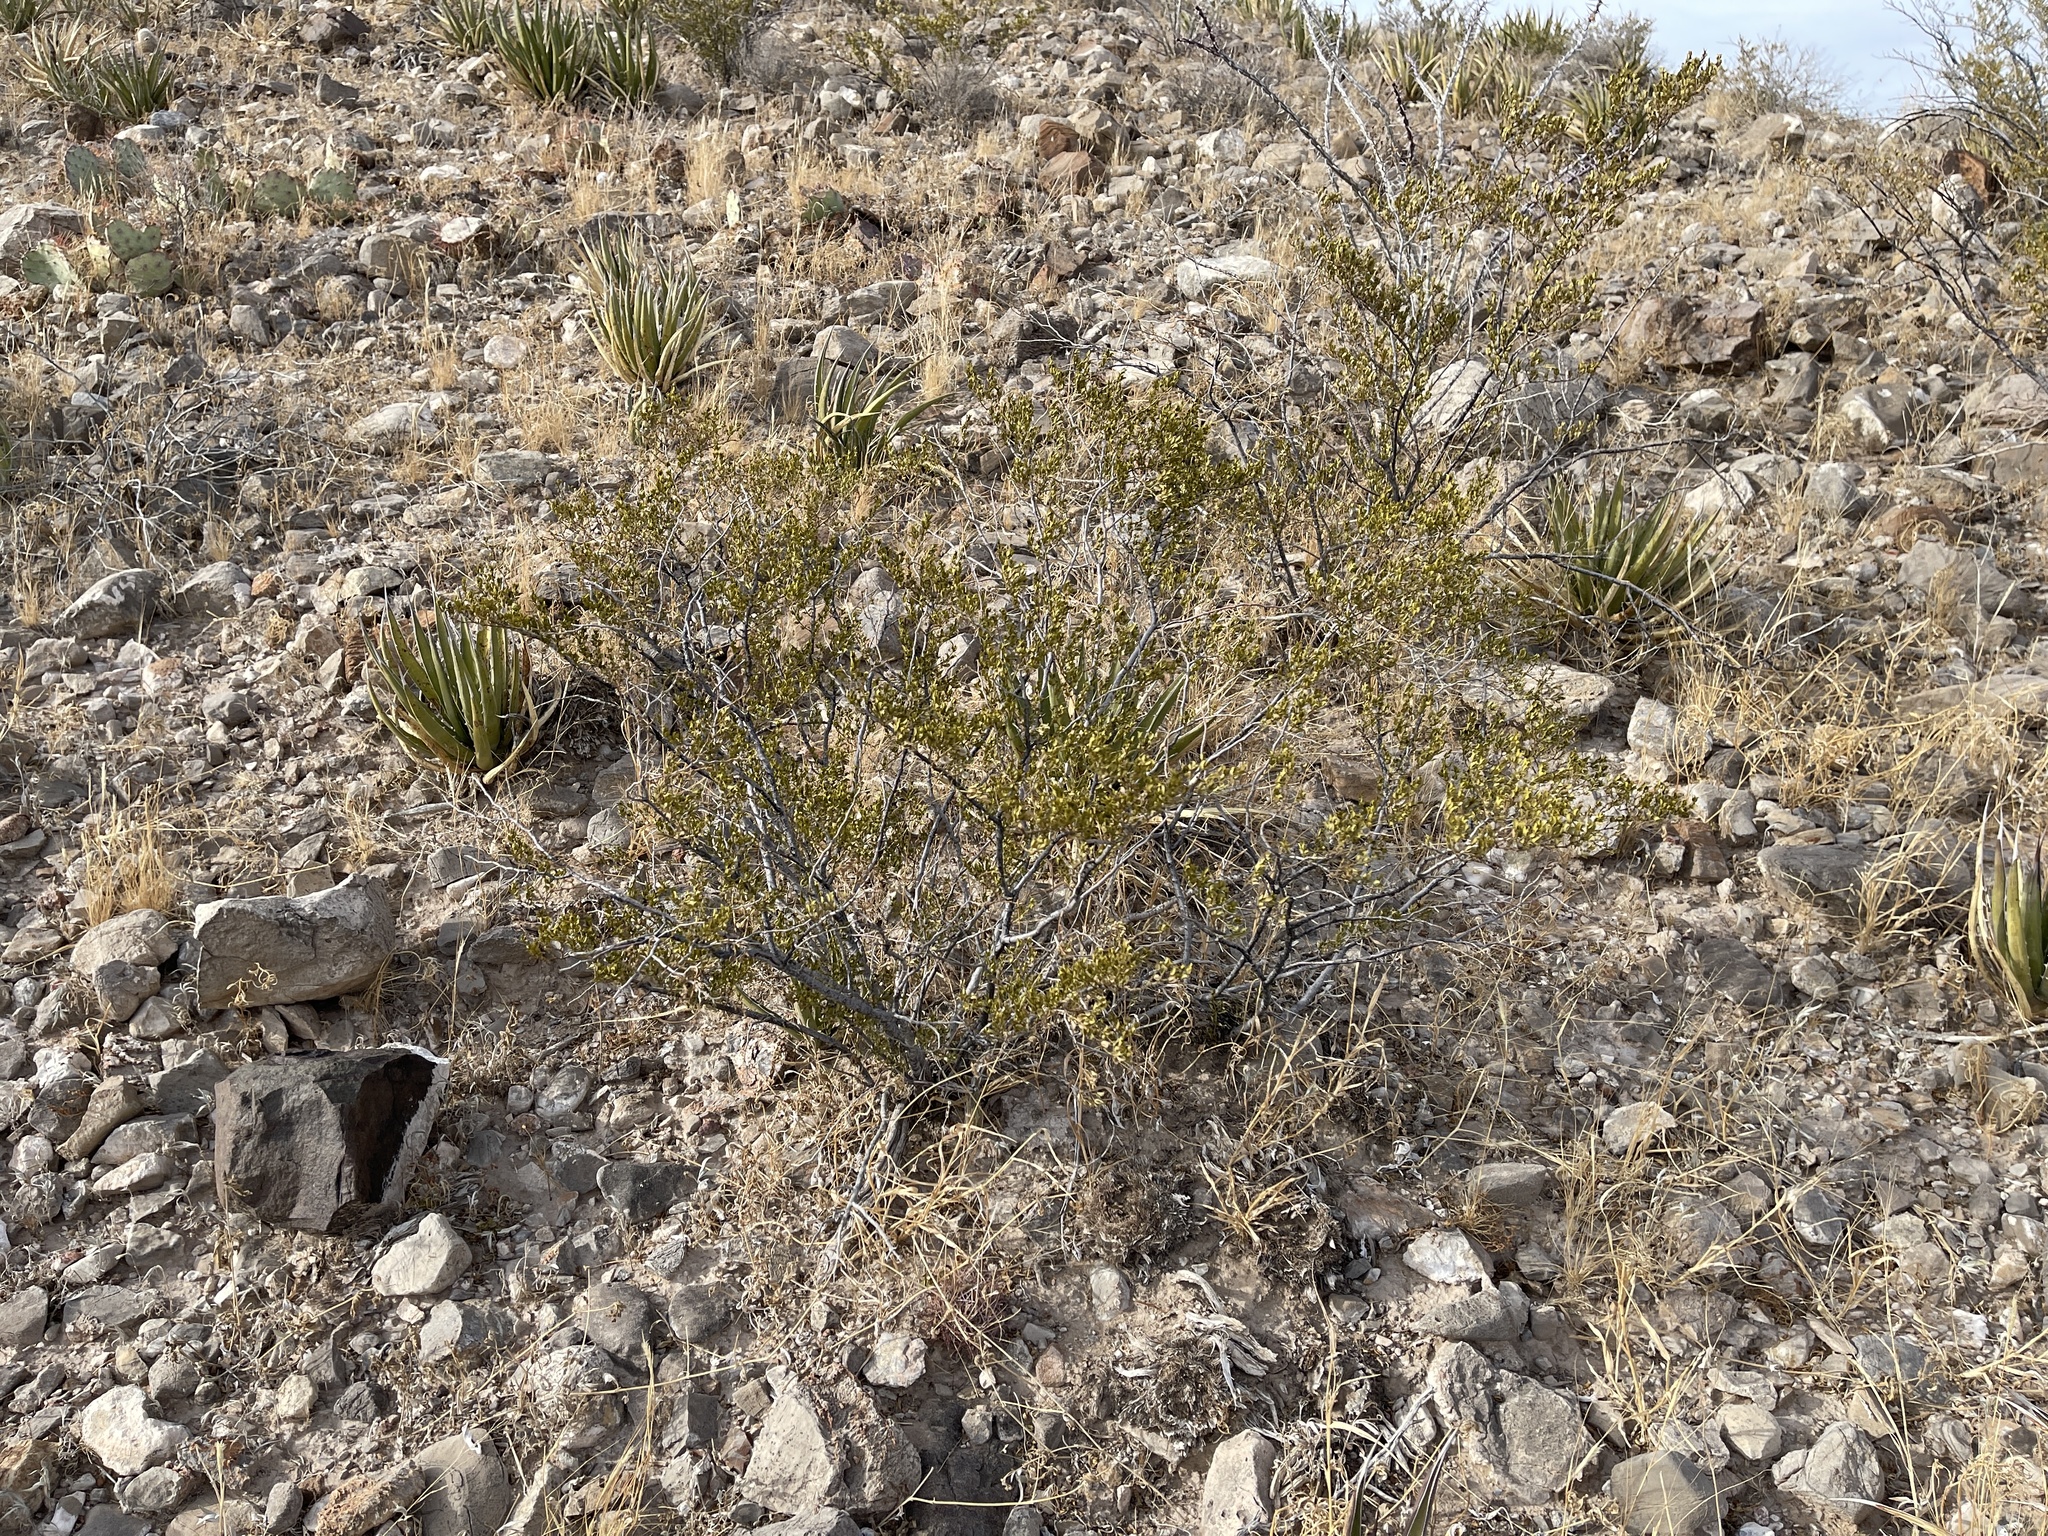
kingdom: Plantae
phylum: Tracheophyta
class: Magnoliopsida
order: Zygophyllales
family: Zygophyllaceae
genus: Larrea
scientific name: Larrea tridentata
